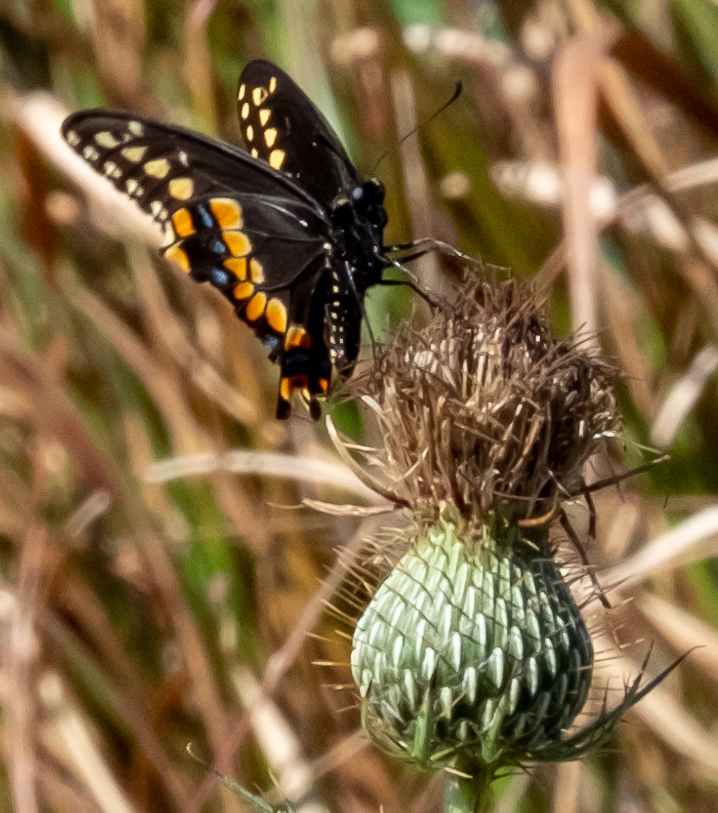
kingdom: Animalia
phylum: Arthropoda
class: Insecta
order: Lepidoptera
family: Papilionidae
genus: Papilio
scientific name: Papilio polyxenes
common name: Black swallowtail
